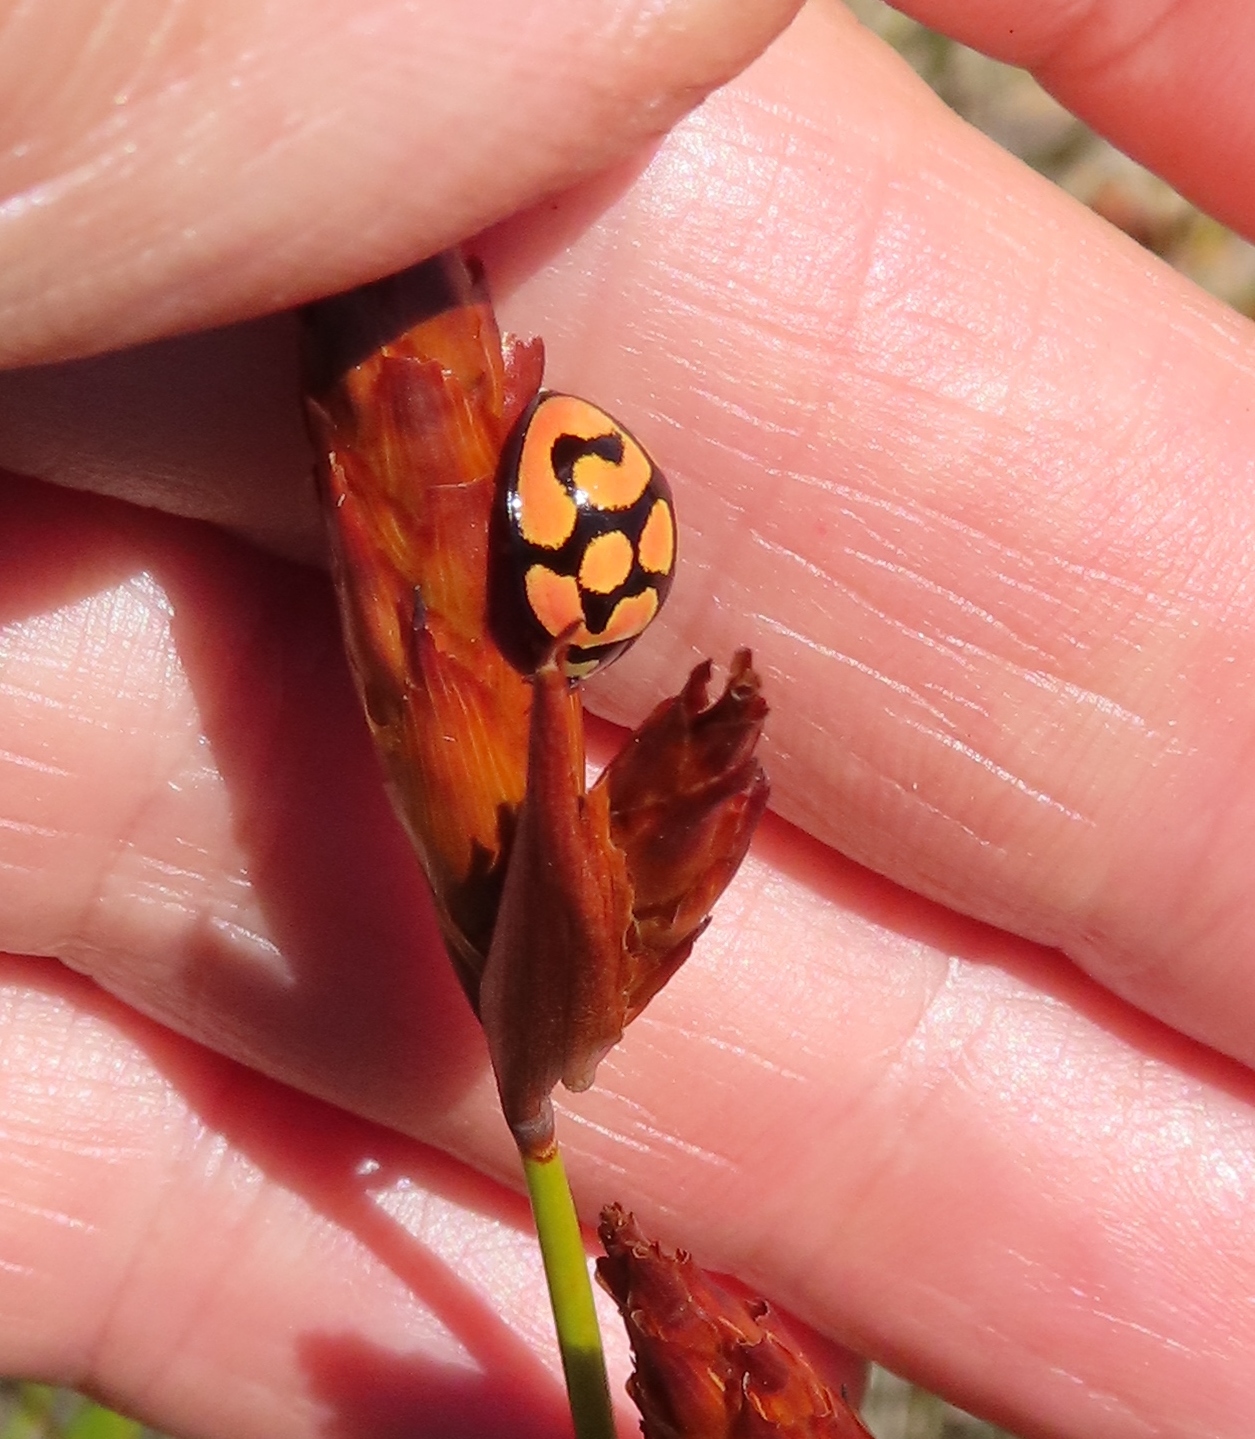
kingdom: Animalia
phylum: Arthropoda
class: Insecta
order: Coleoptera
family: Coccinellidae
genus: Cheilomenes
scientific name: Cheilomenes lunata
